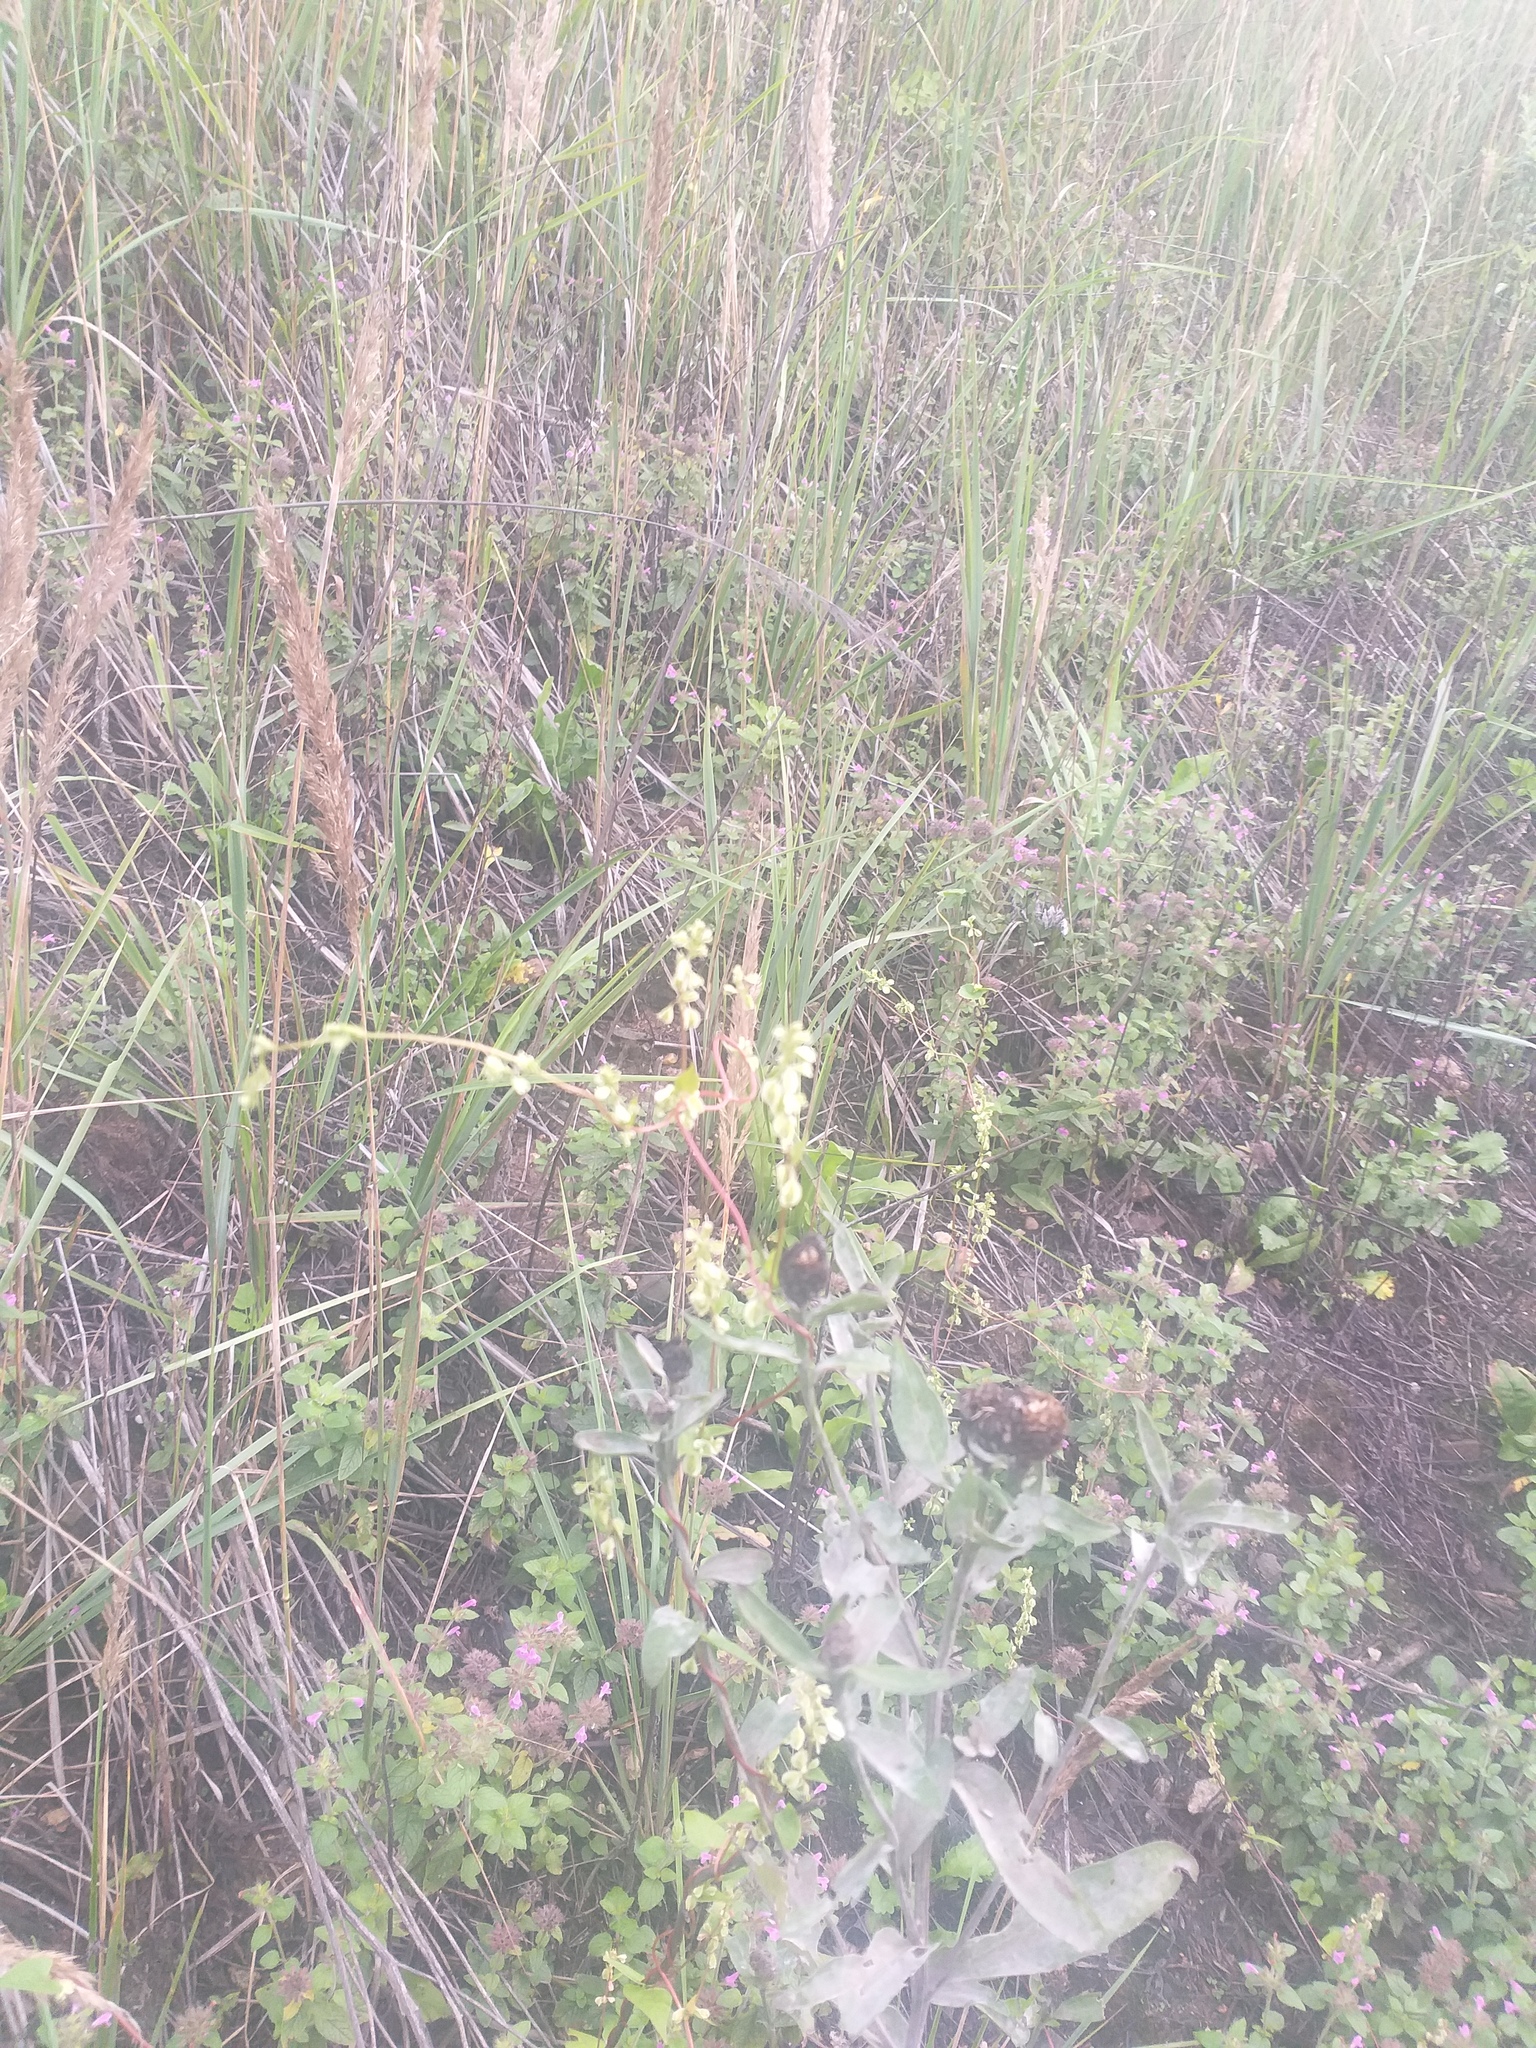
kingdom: Plantae
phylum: Tracheophyta
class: Magnoliopsida
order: Caryophyllales
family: Polygonaceae
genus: Fallopia
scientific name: Fallopia dumetorum
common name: Copse-bindweed
